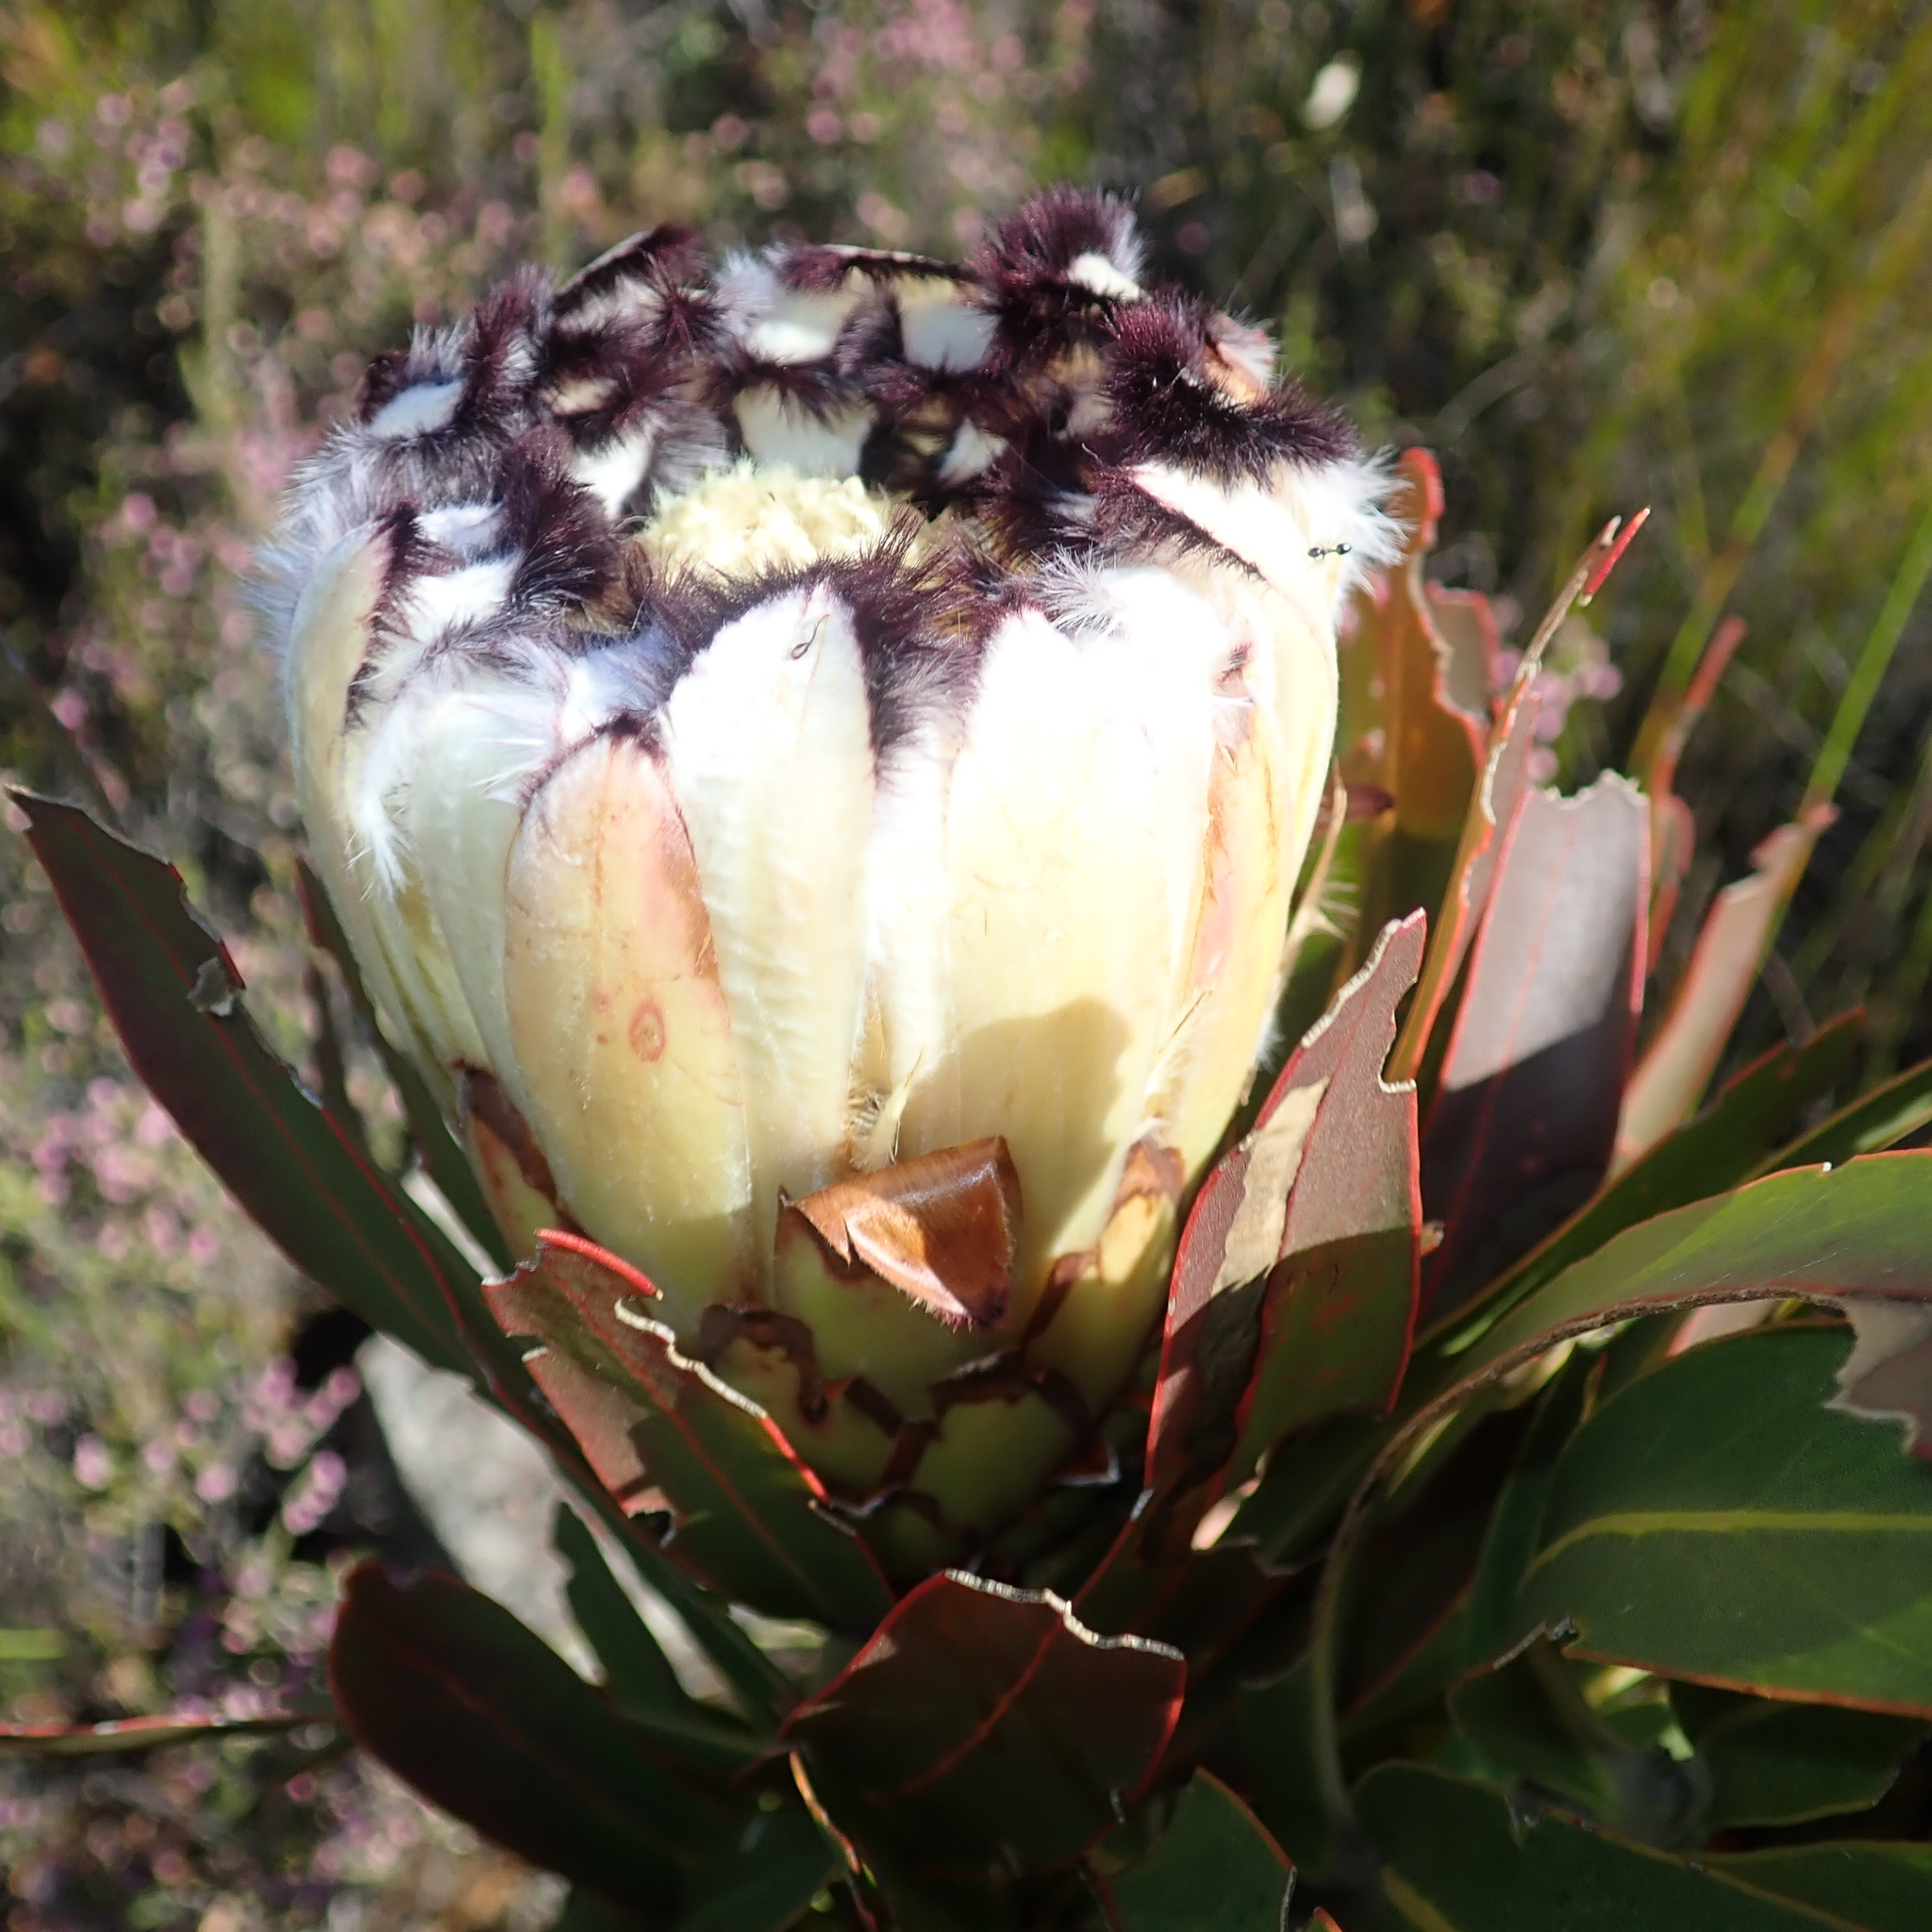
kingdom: Plantae
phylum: Tracheophyta
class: Magnoliopsida
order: Proteales
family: Proteaceae
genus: Protea
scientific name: Protea neriifolia
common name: Blue sugarbush
